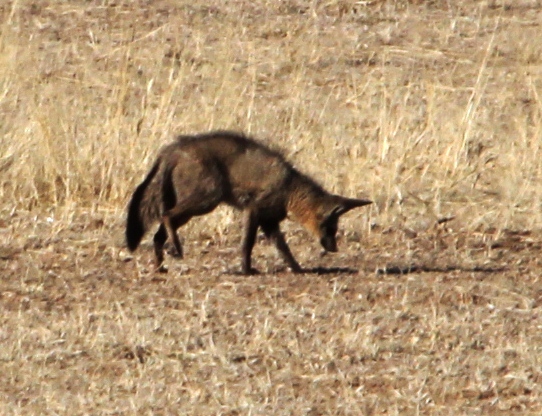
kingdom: Animalia
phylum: Chordata
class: Mammalia
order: Carnivora
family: Canidae
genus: Otocyon
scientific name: Otocyon megalotis
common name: Bat-eared fox
